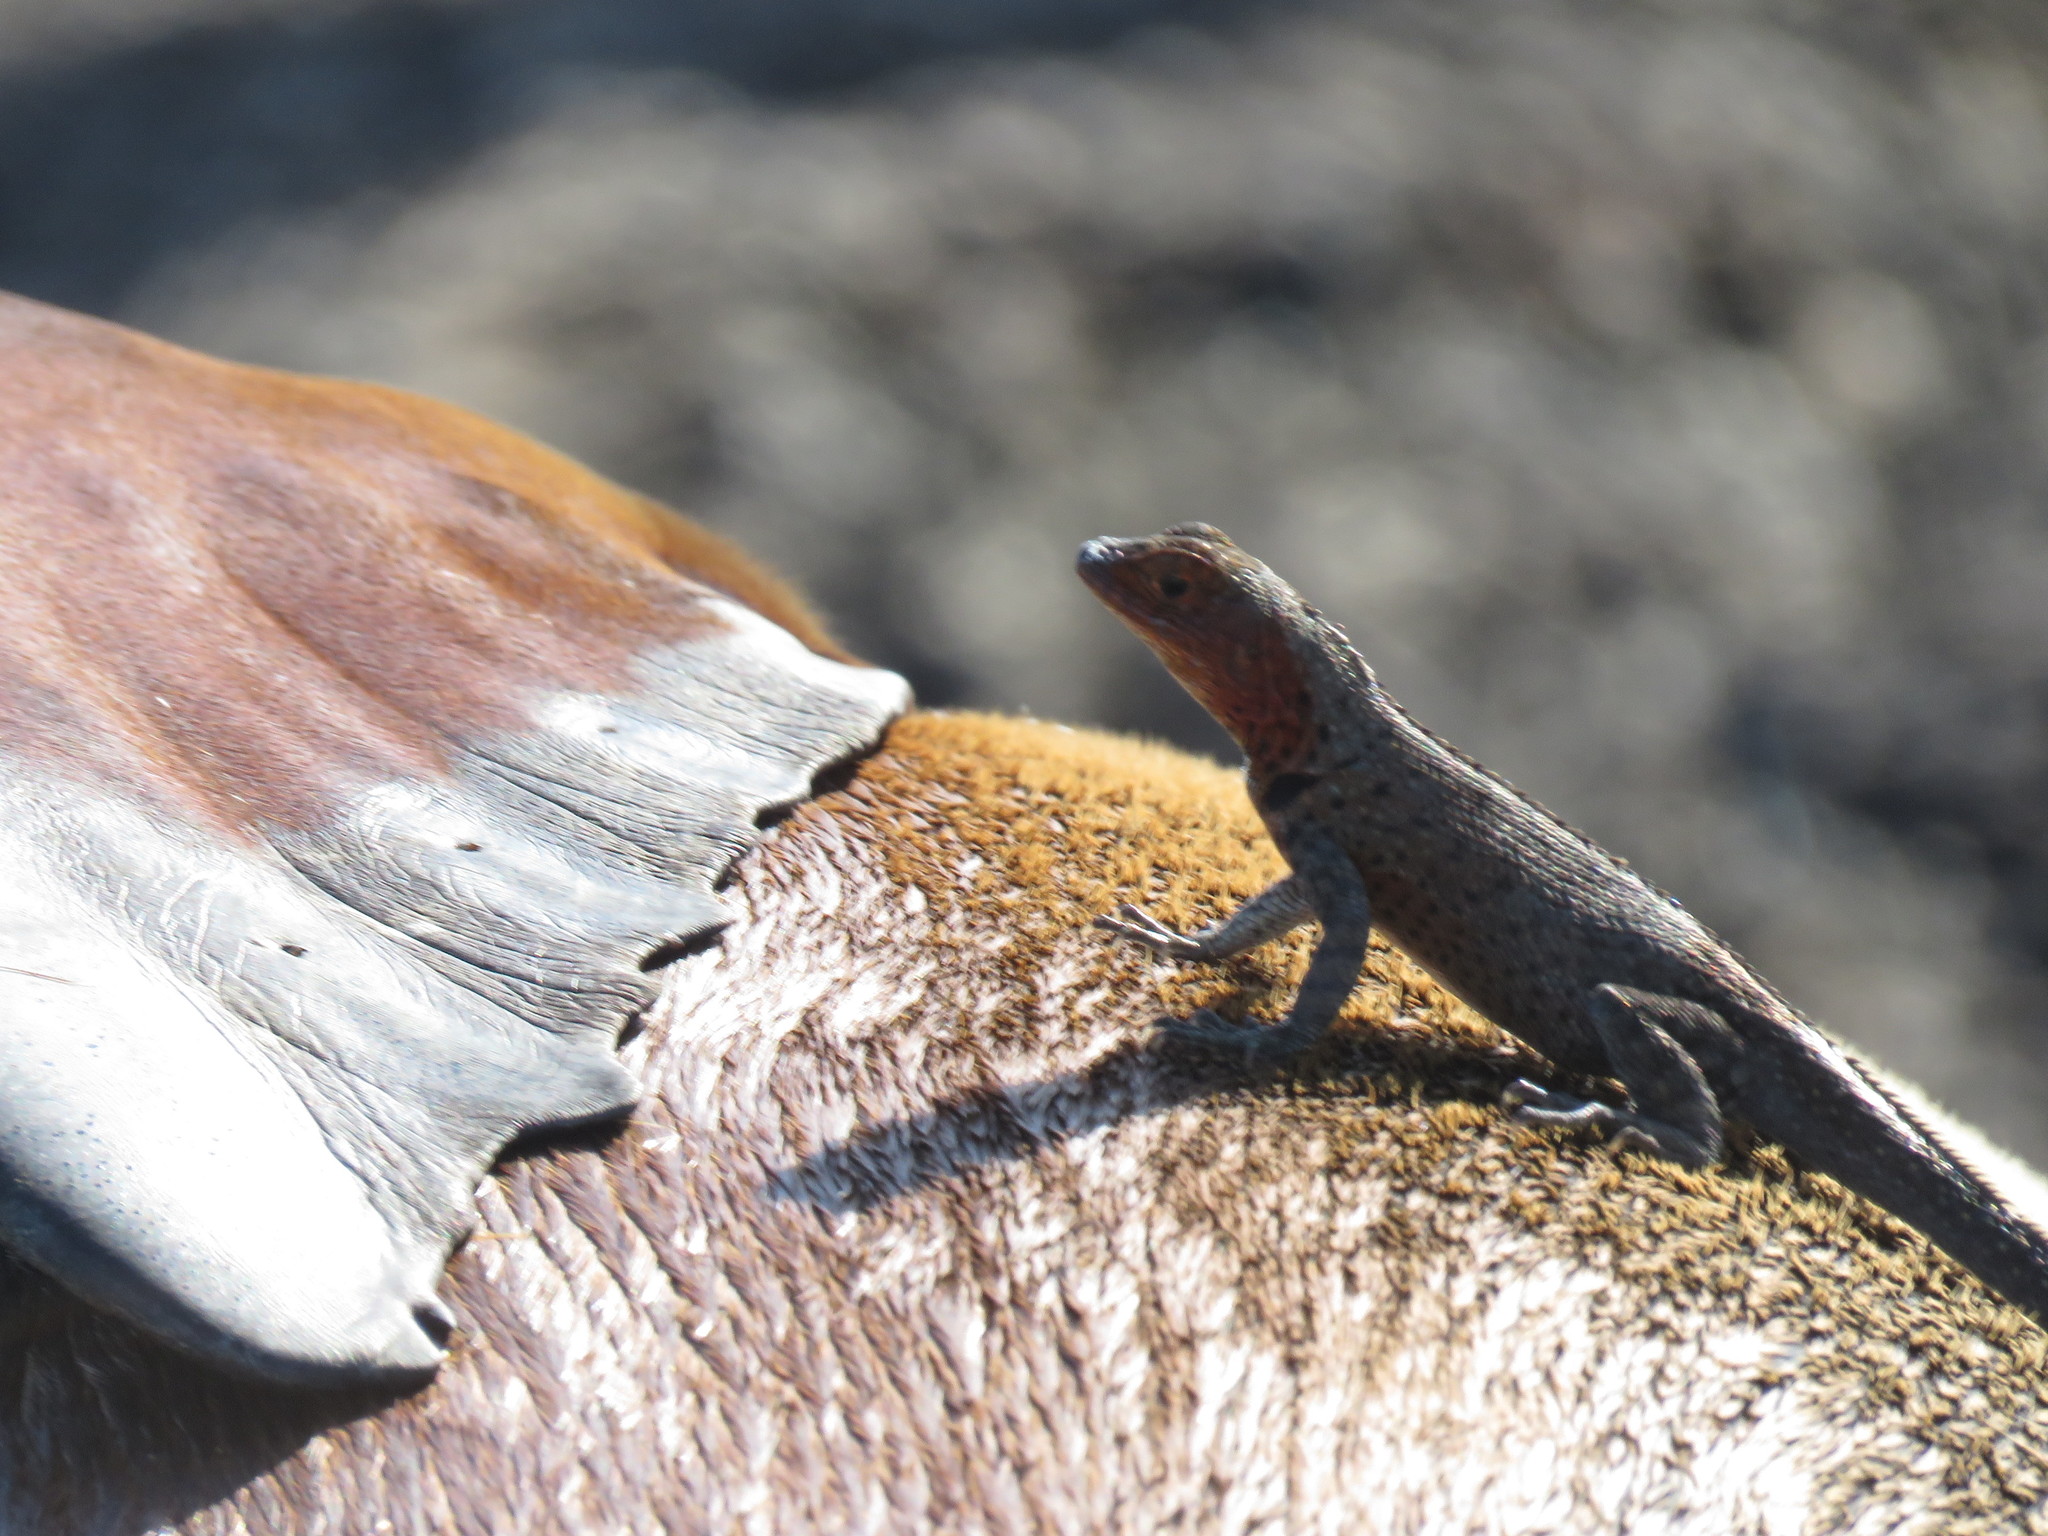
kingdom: Animalia
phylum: Chordata
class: Mammalia
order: Carnivora
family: Otariidae
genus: Zalophus
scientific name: Zalophus wollebaeki
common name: Galapagos sea lion
